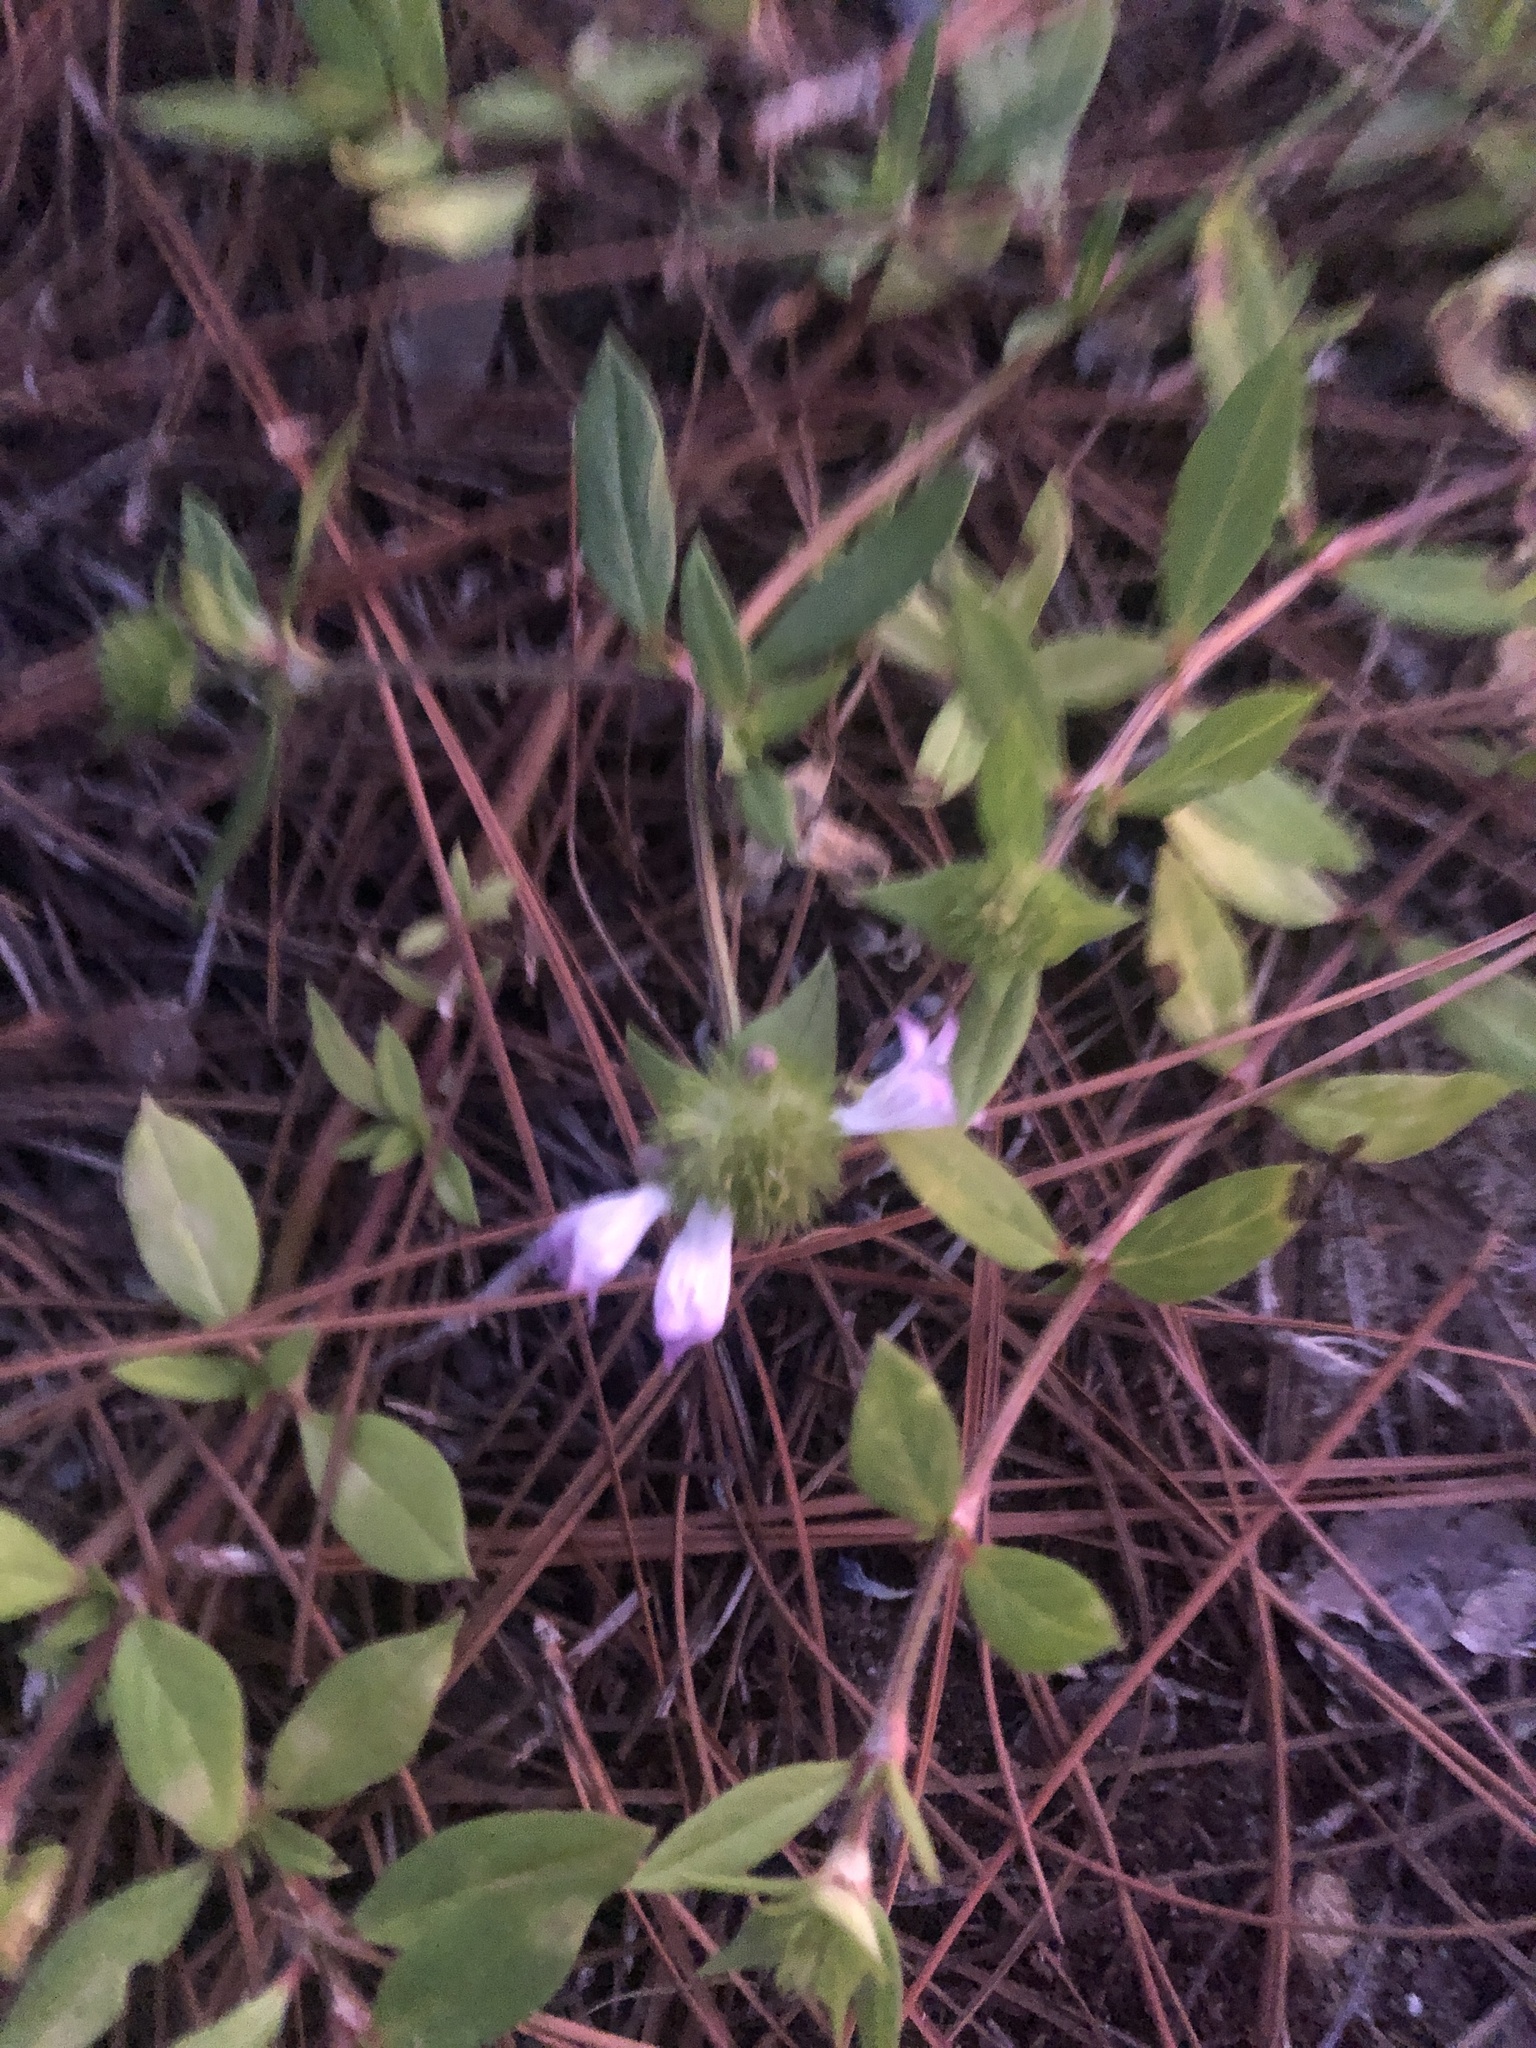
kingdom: Plantae
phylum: Tracheophyta
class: Magnoliopsida
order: Gentianales
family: Rubiaceae
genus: Richardia
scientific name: Richardia grandiflora
